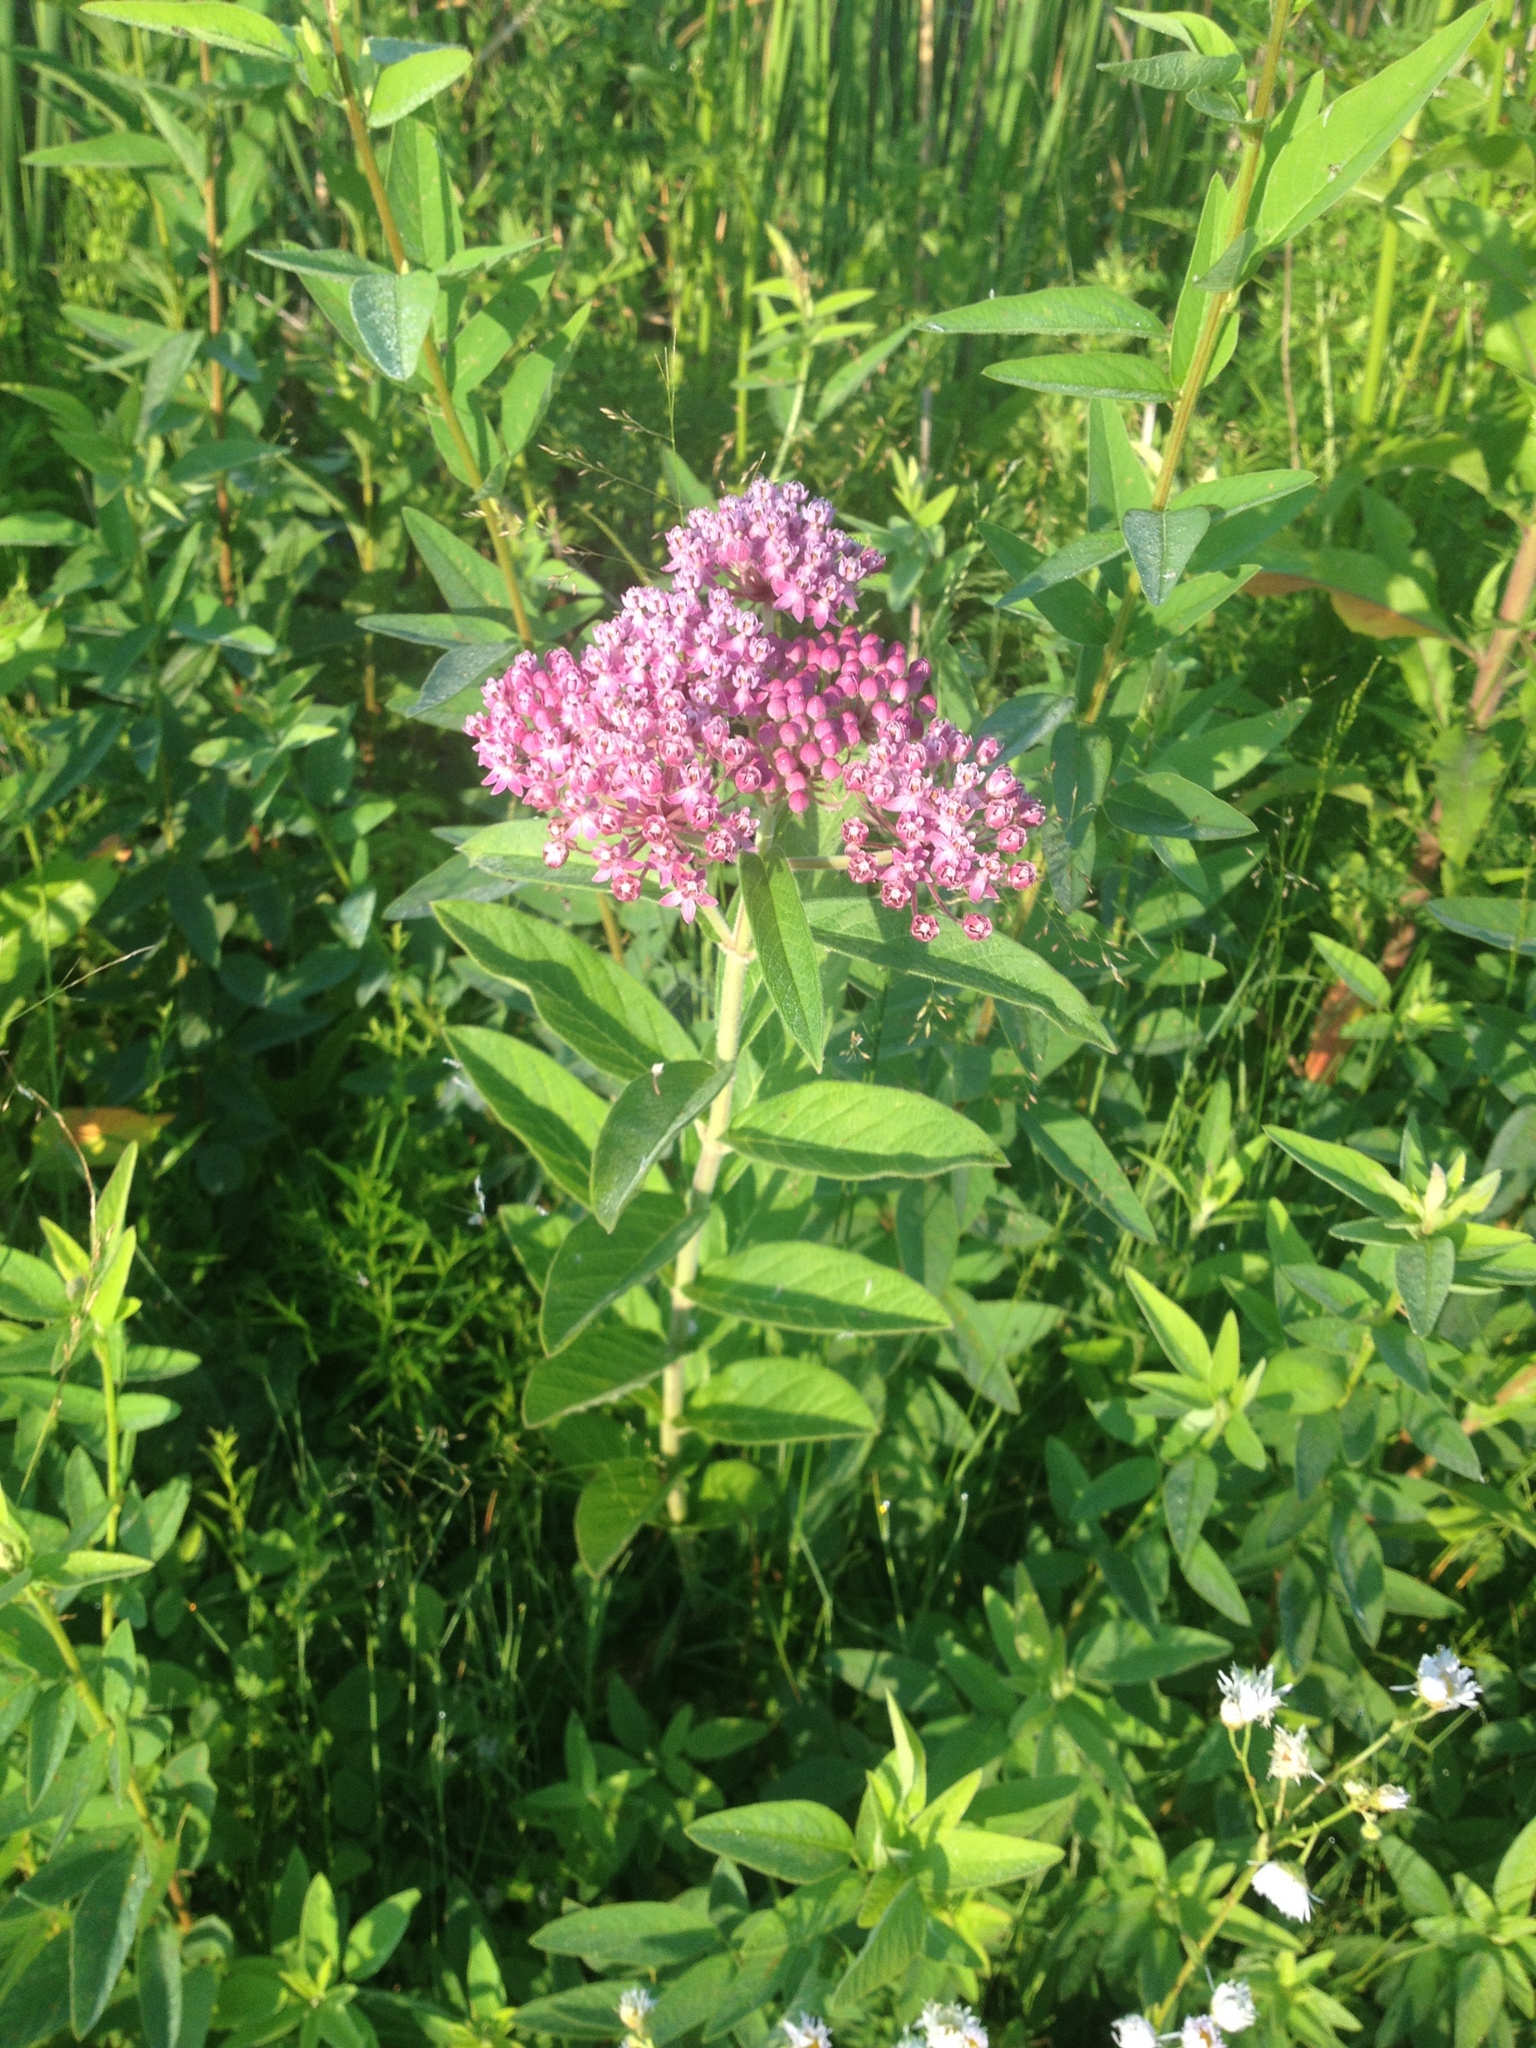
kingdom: Plantae
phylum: Tracheophyta
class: Magnoliopsida
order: Gentianales
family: Apocynaceae
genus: Asclepias
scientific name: Asclepias incarnata
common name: Swamp milkweed
